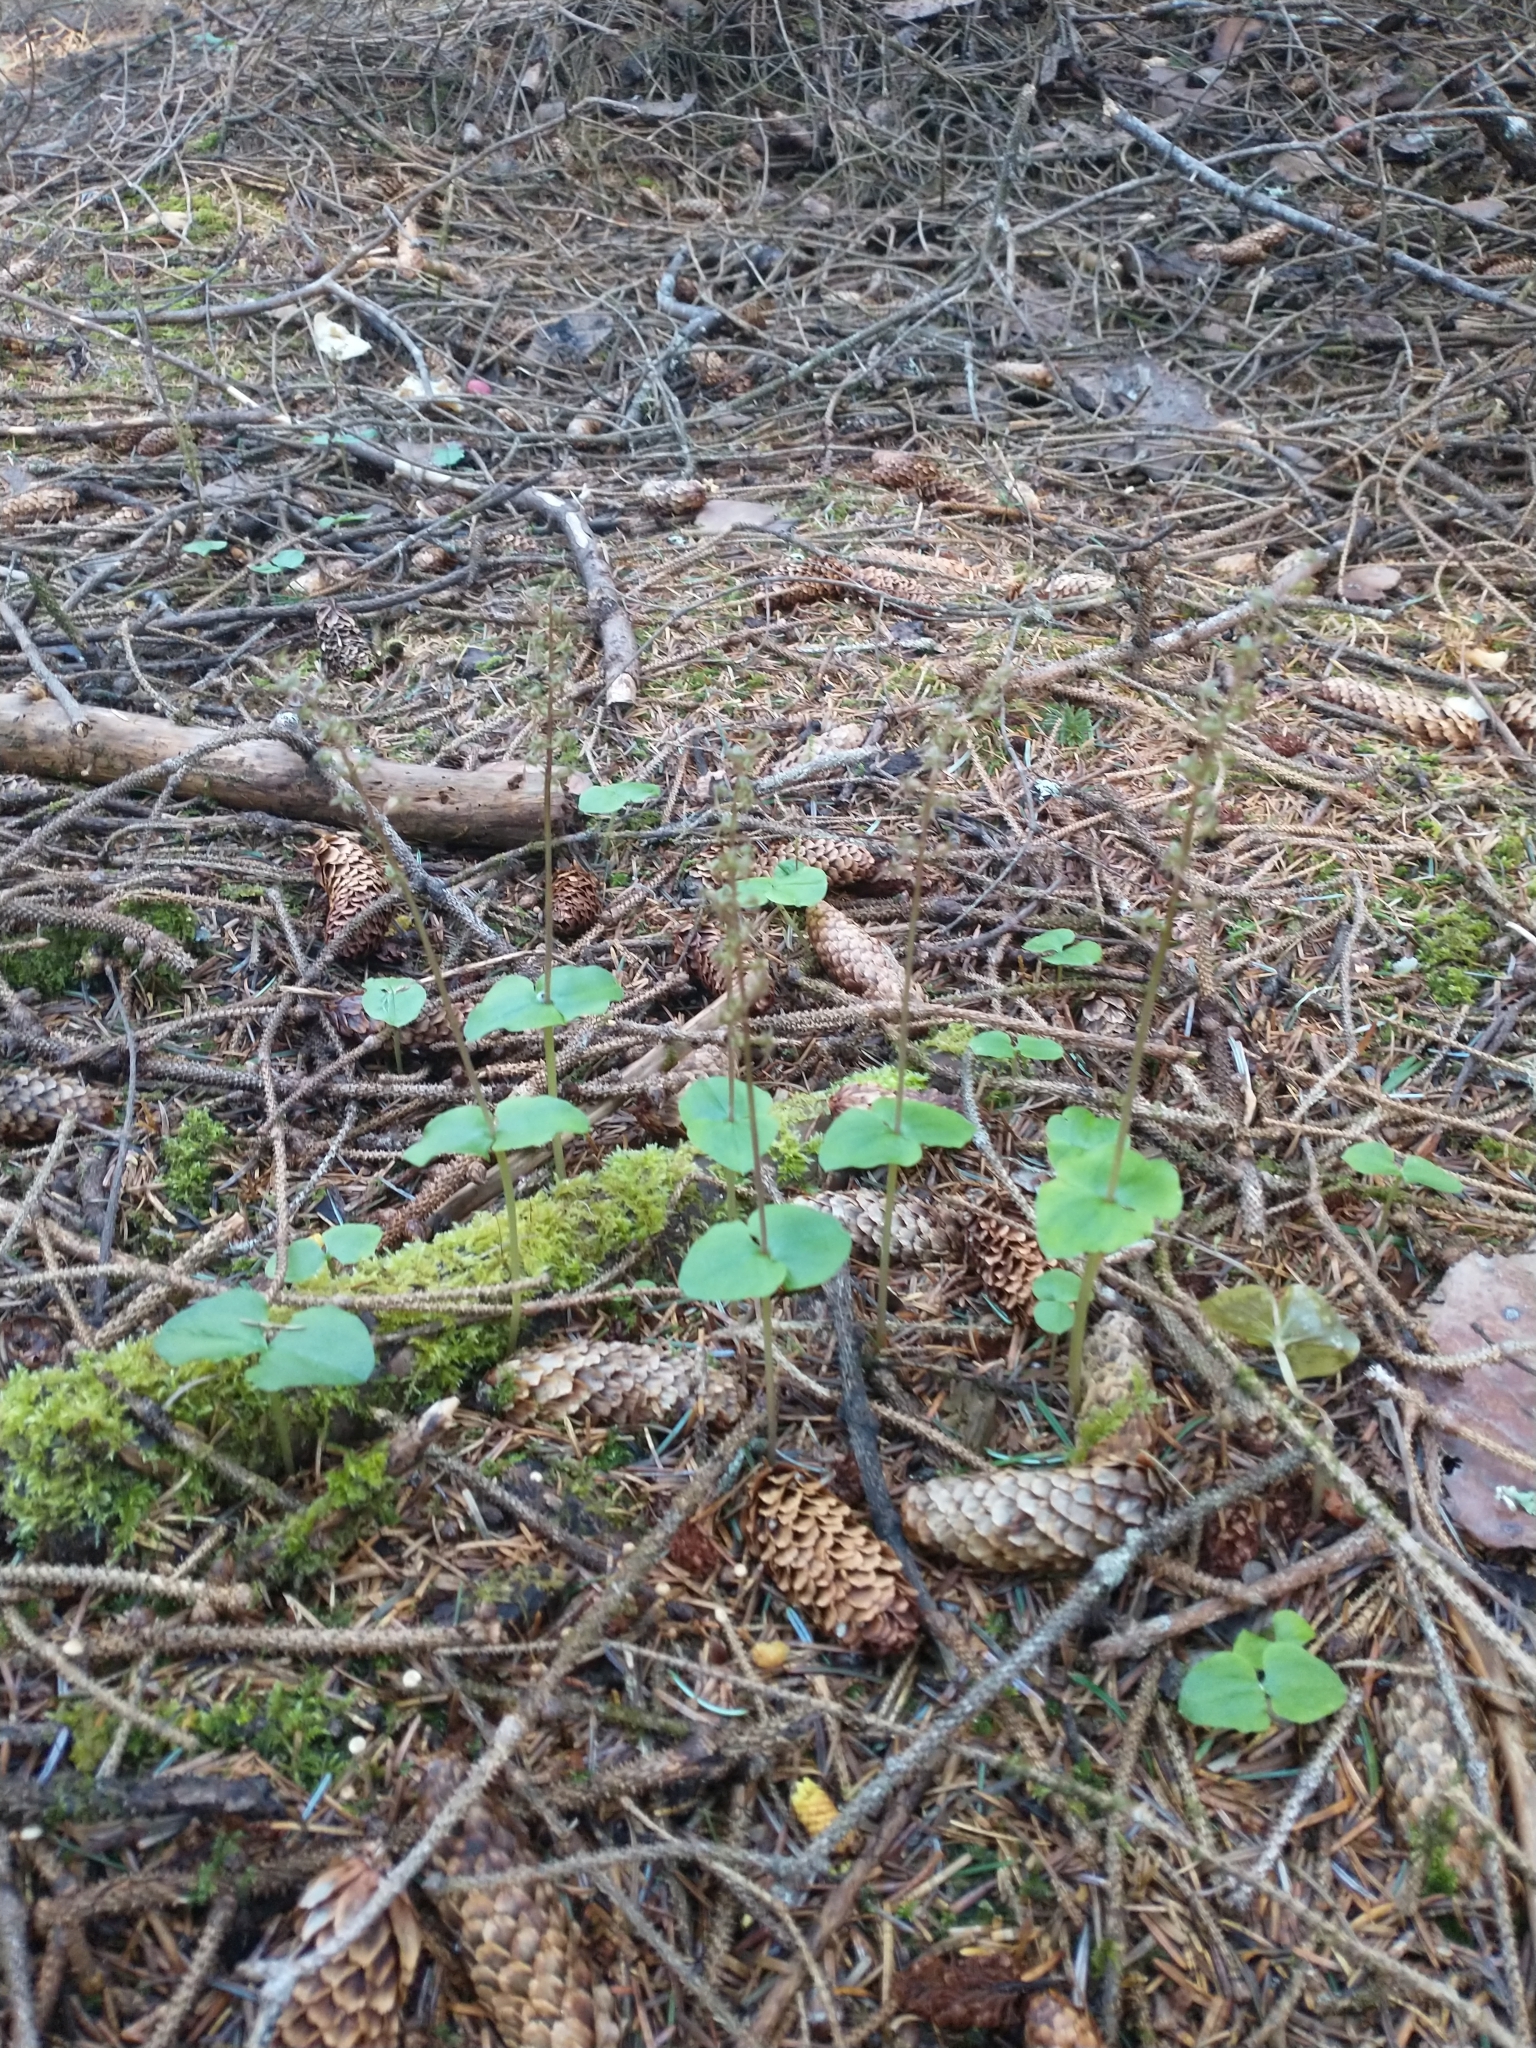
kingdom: Plantae
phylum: Tracheophyta
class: Liliopsida
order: Asparagales
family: Orchidaceae
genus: Neottia
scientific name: Neottia cordata
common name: Lesser twayblade
